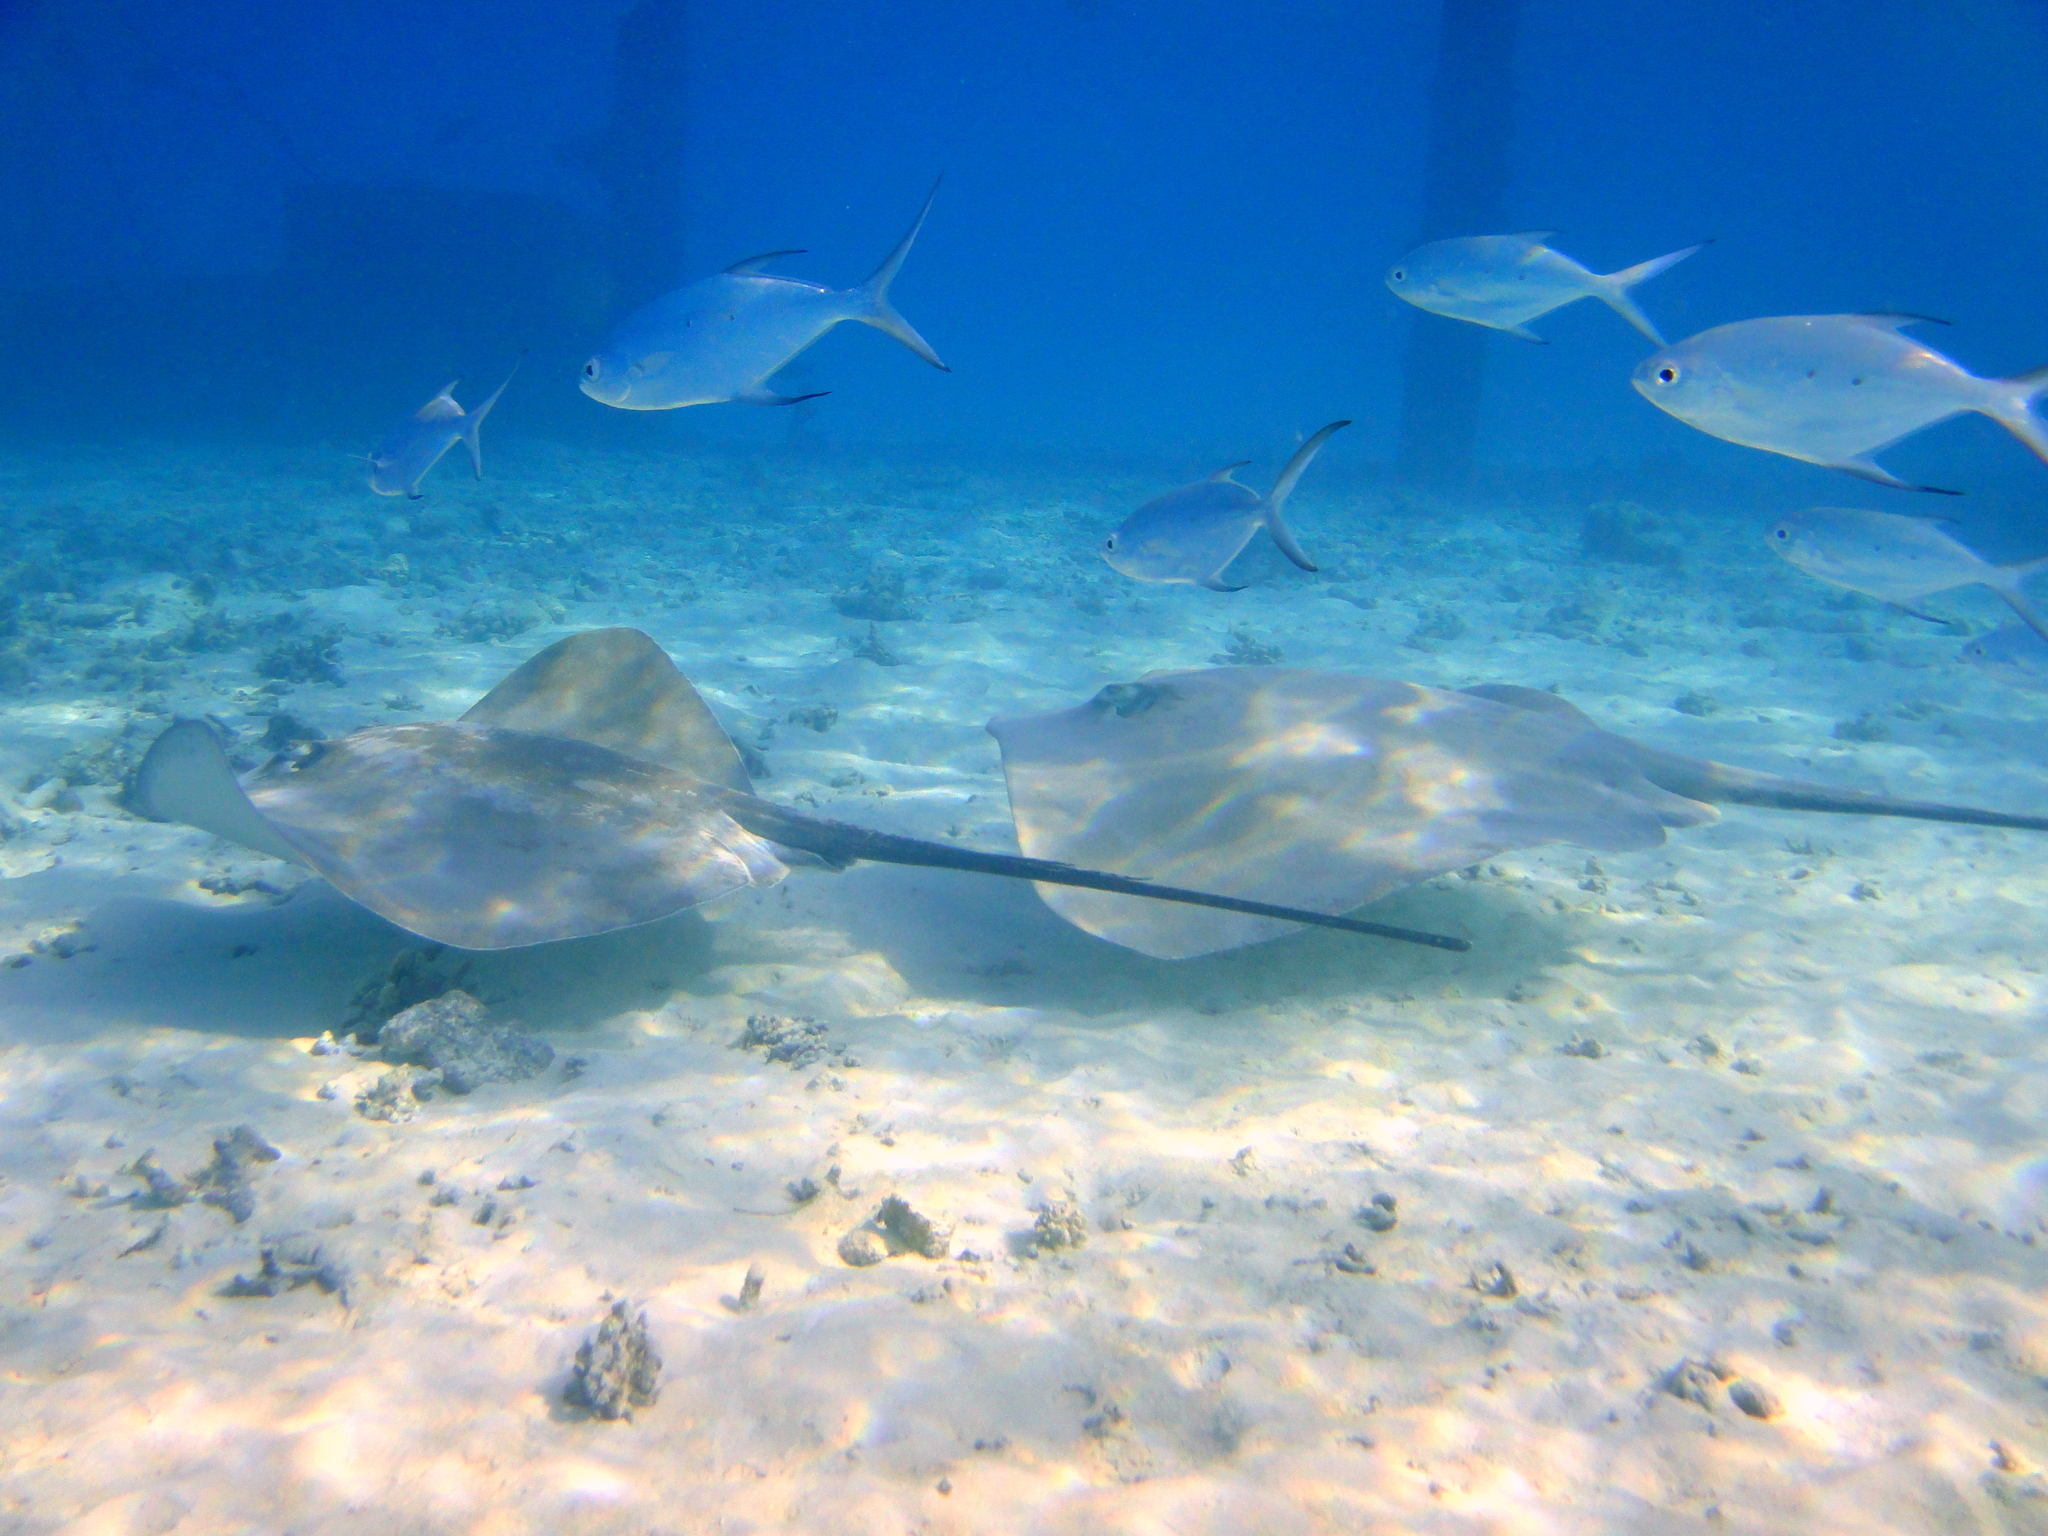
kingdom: Animalia
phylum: Chordata
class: Elasmobranchii
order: Myliobatiformes
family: Dasyatidae
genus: Pateobatis
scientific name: Pateobatis fai
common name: Pink whipray
